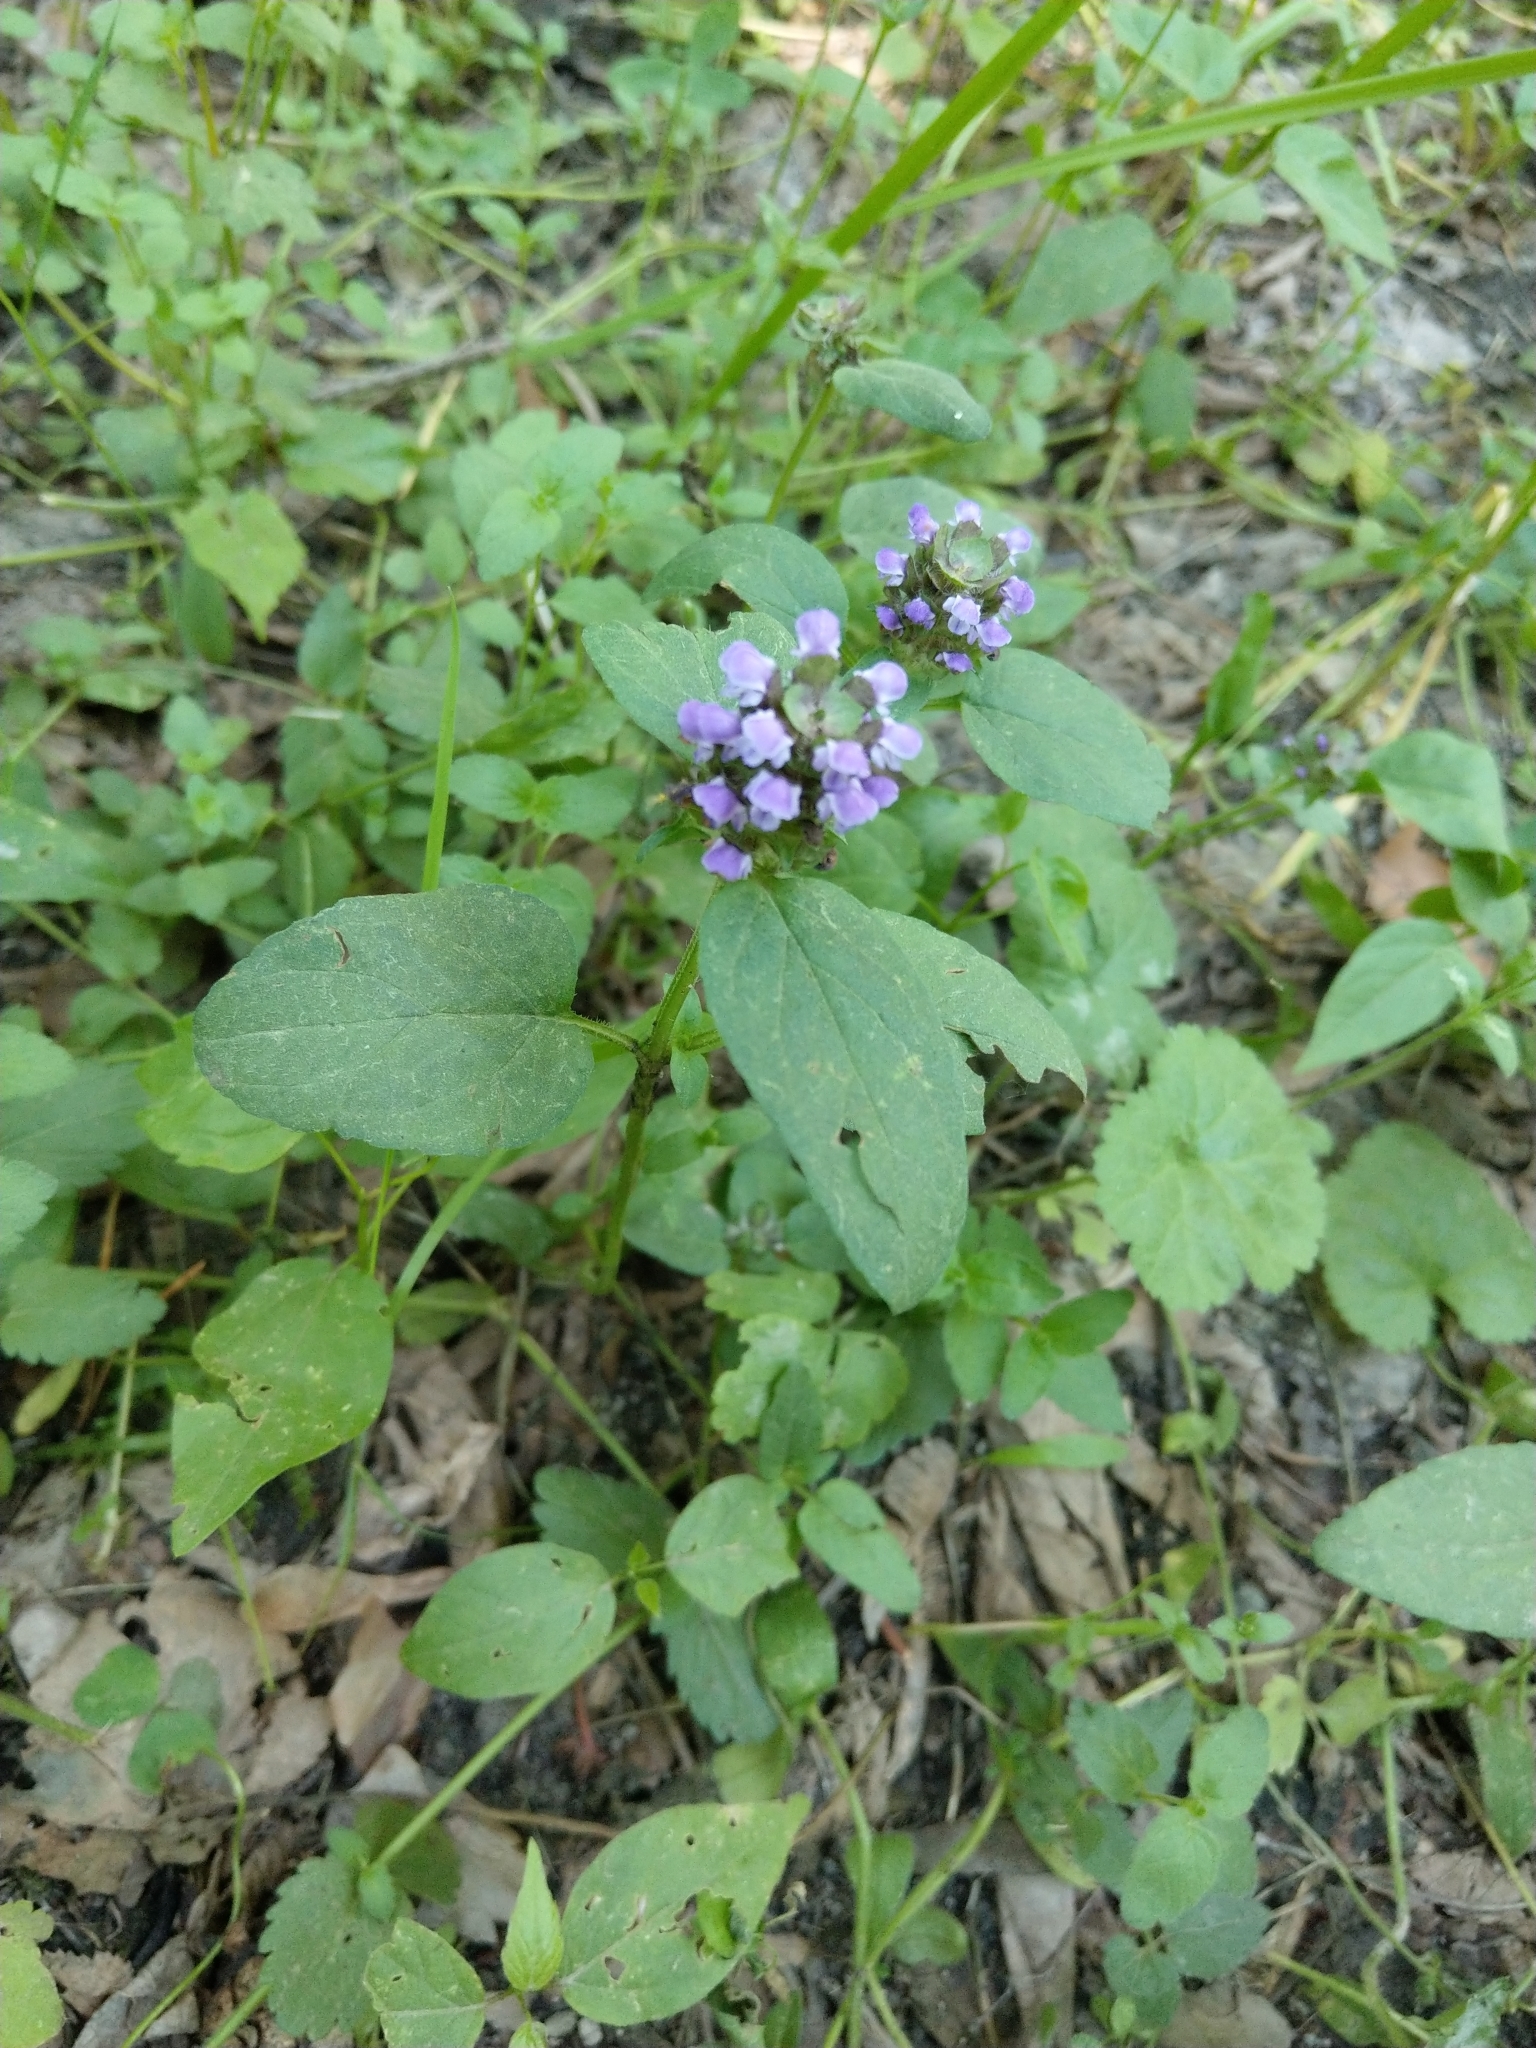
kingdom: Plantae
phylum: Tracheophyta
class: Magnoliopsida
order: Lamiales
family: Lamiaceae
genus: Prunella
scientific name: Prunella vulgaris
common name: Heal-all
